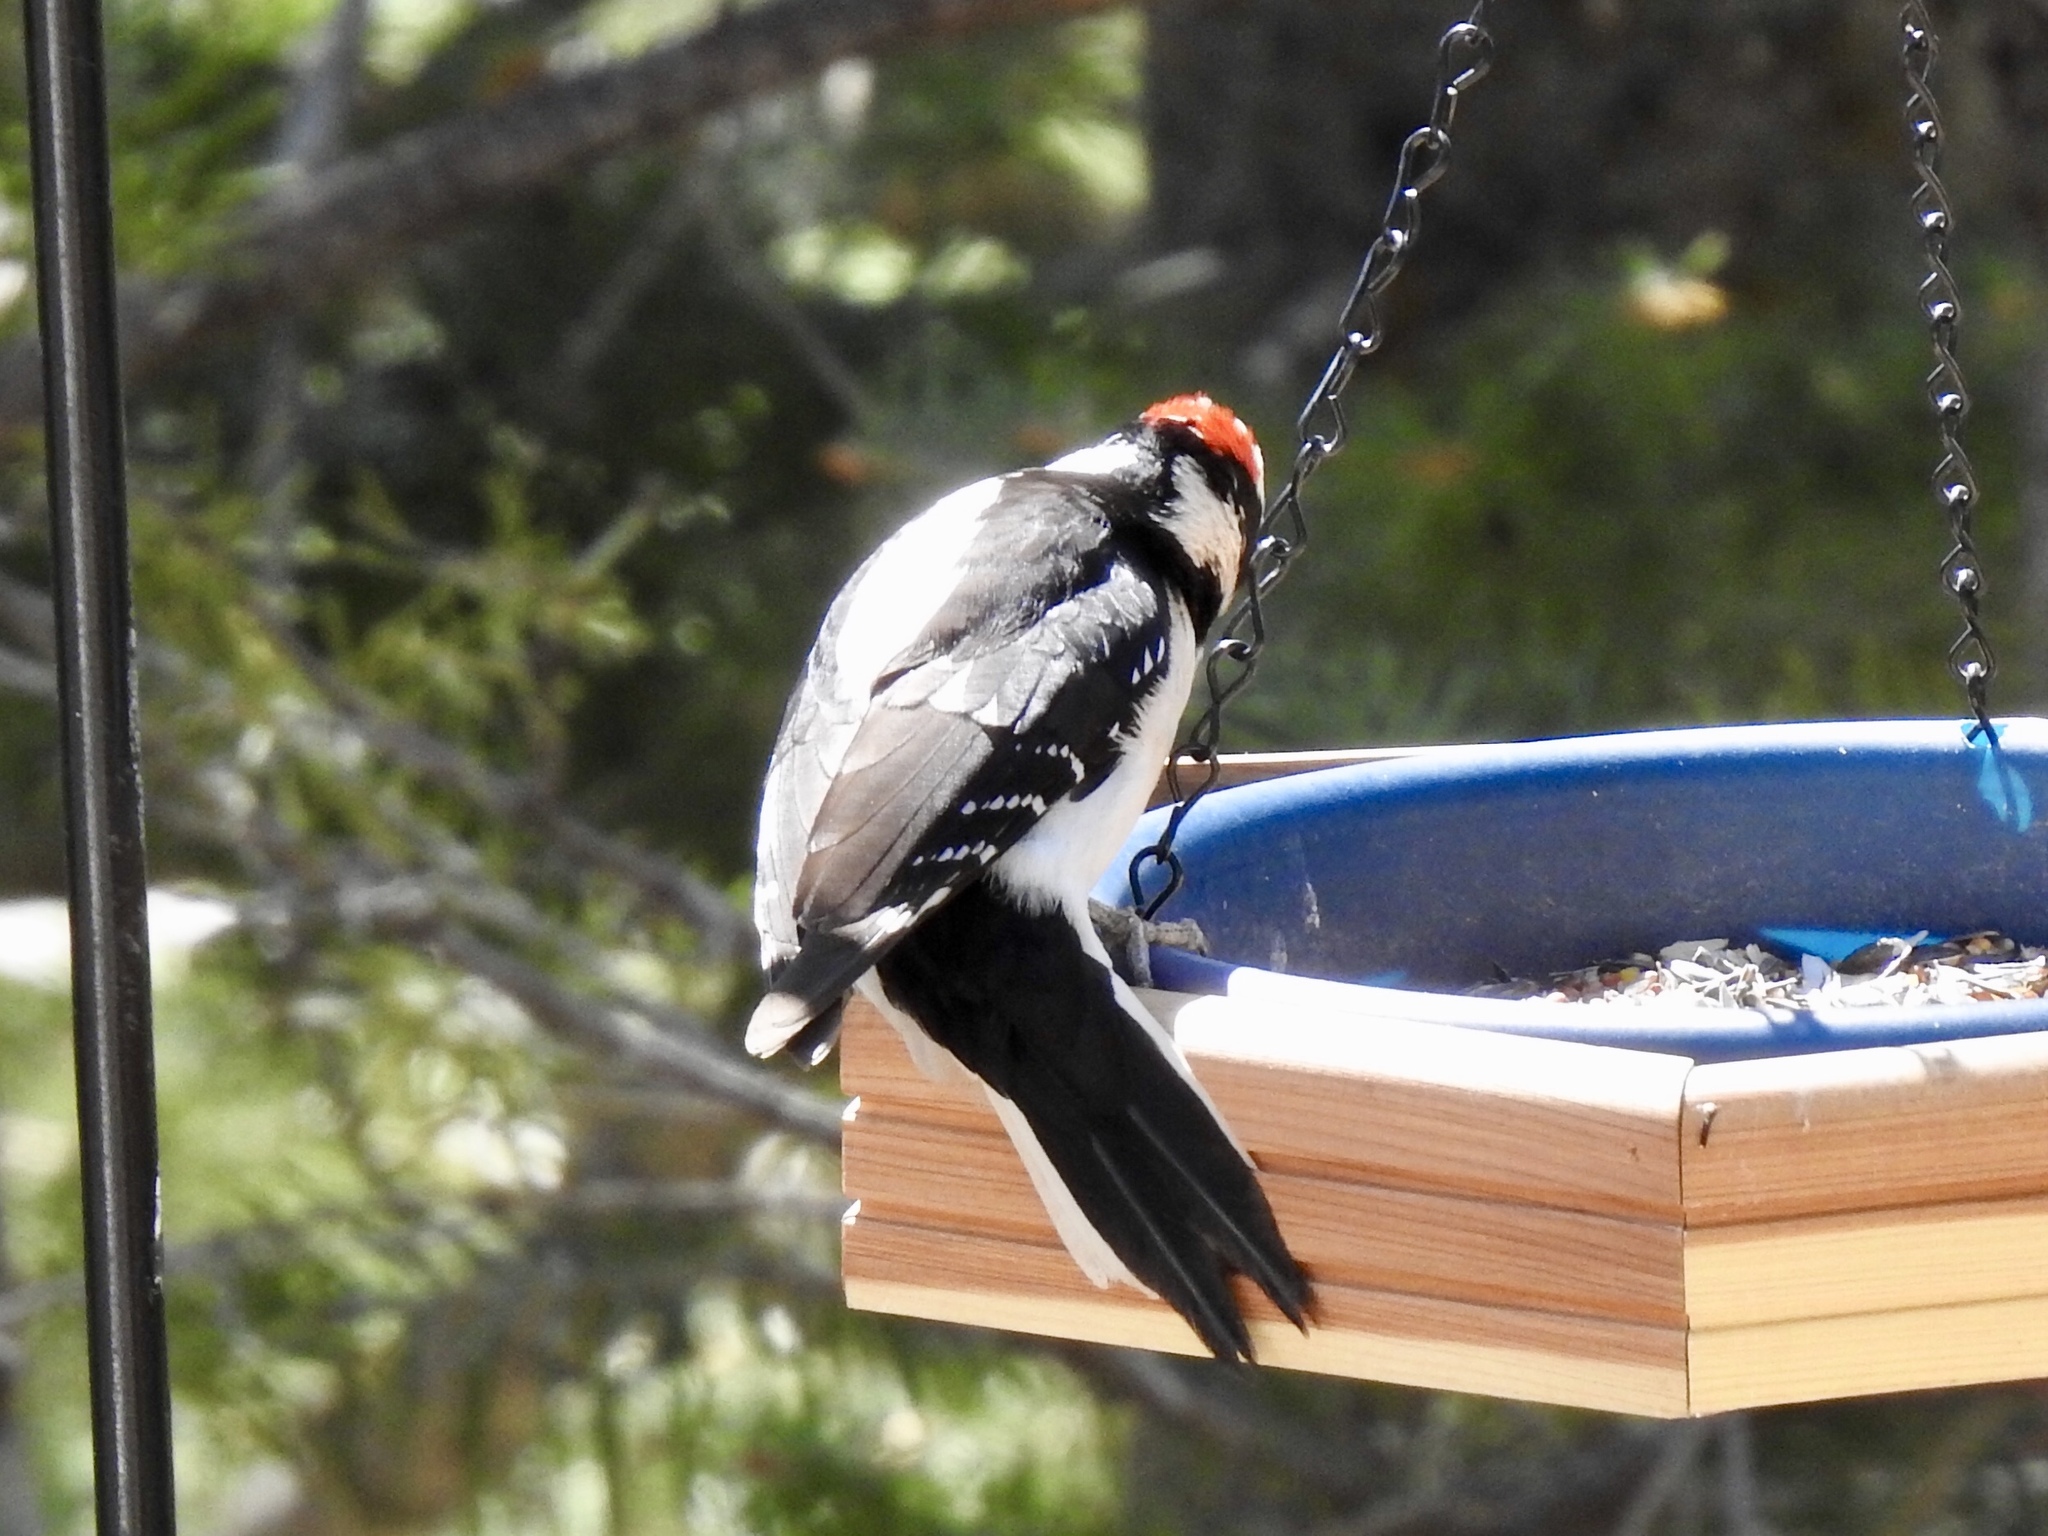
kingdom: Animalia
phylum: Chordata
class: Aves
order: Piciformes
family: Picidae
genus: Leuconotopicus
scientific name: Leuconotopicus villosus
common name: Hairy woodpecker
